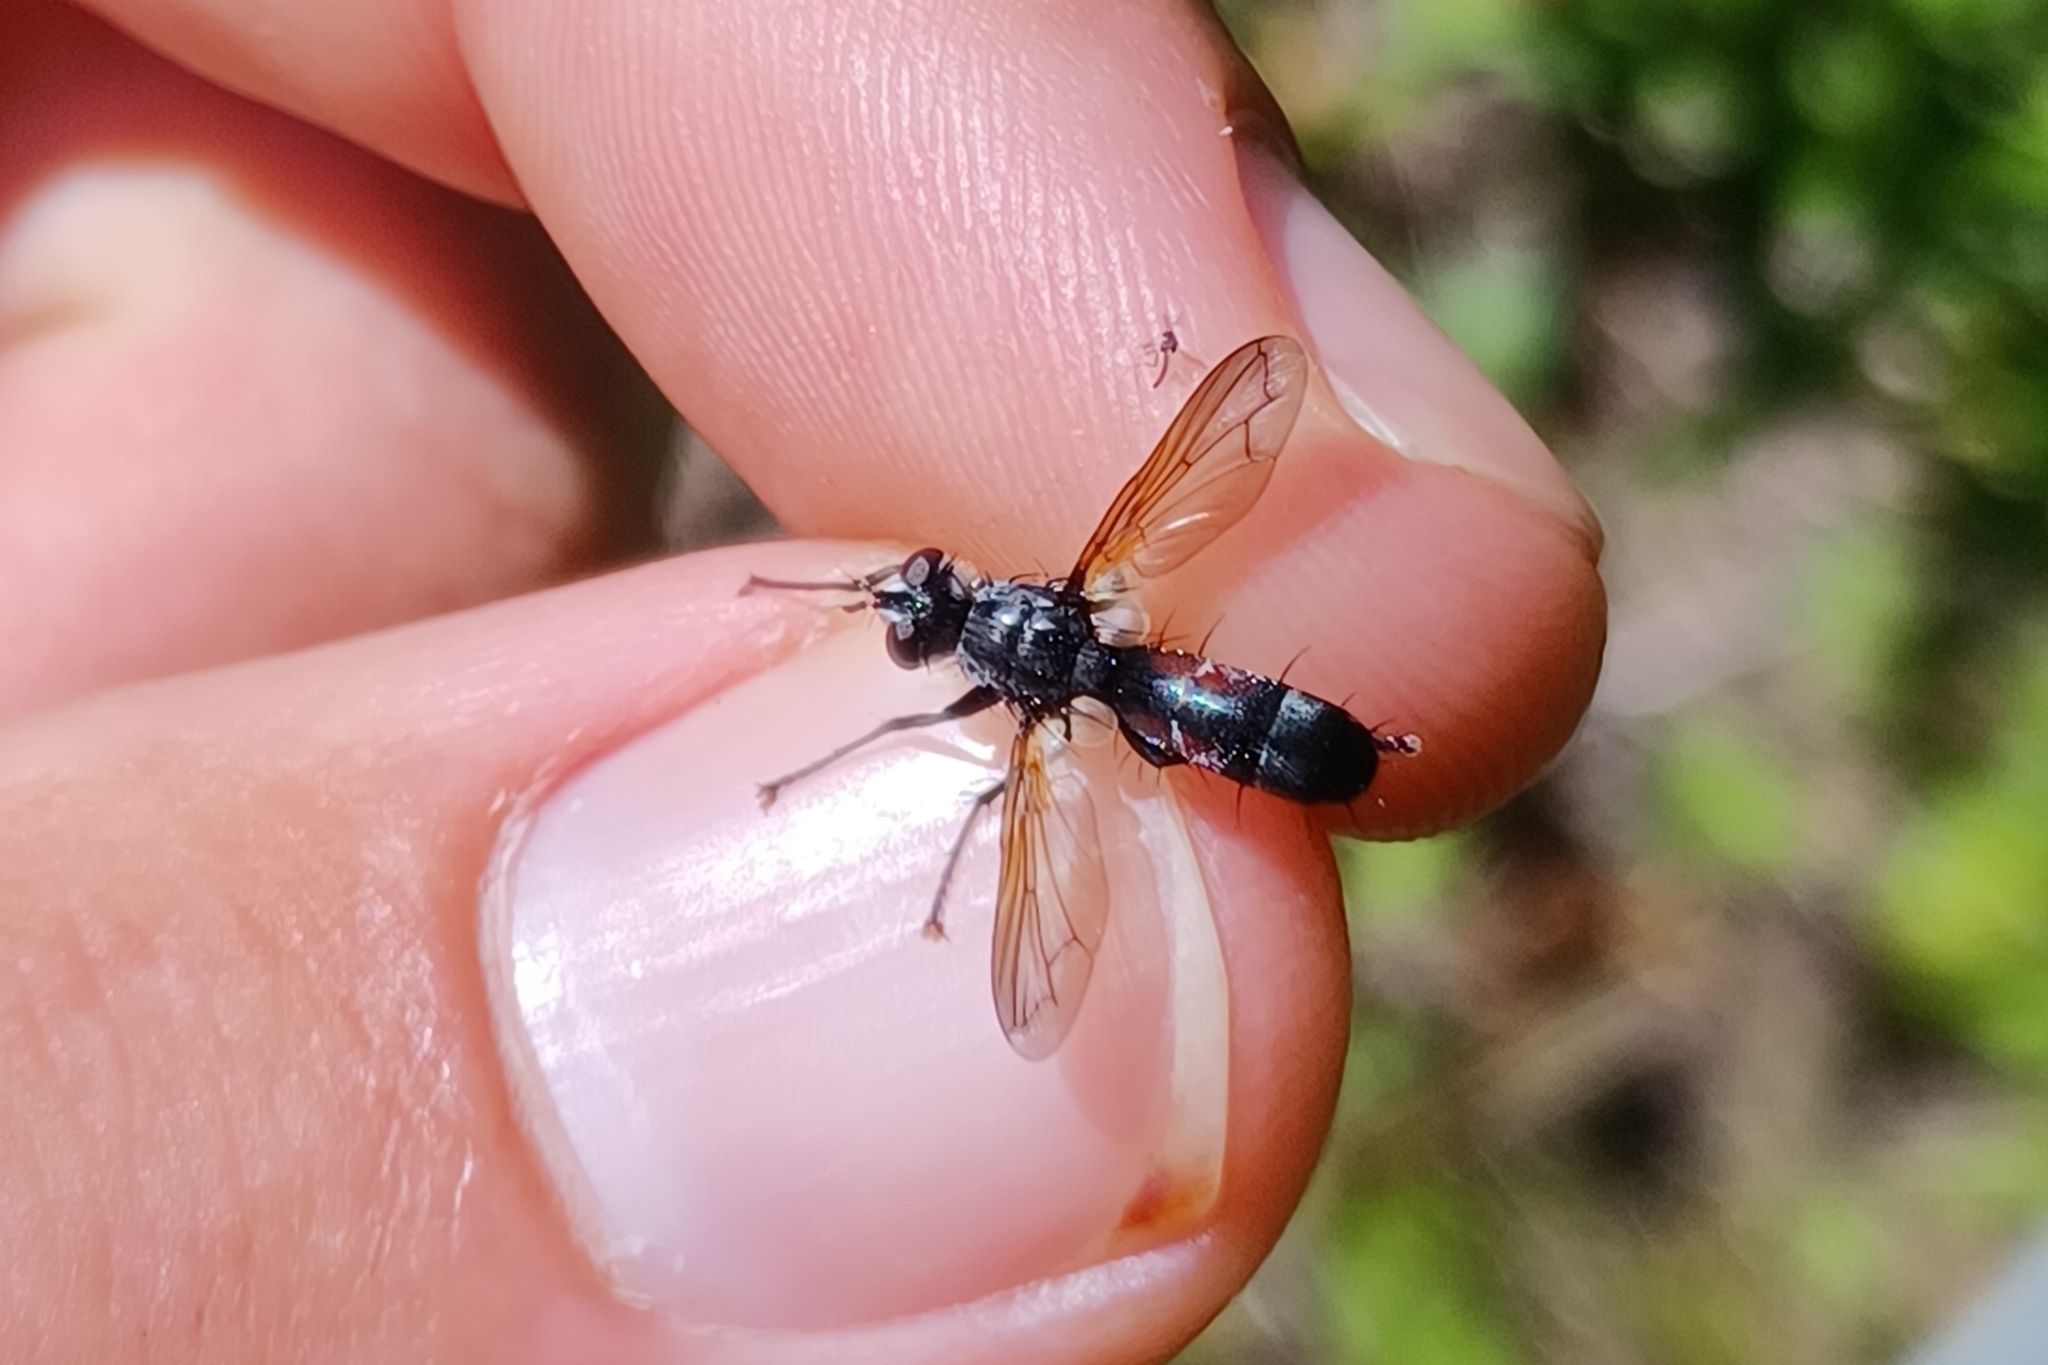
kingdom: Animalia
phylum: Arthropoda
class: Insecta
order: Diptera
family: Tachinidae
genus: Cylindromyia
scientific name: Cylindromyia interrupta
